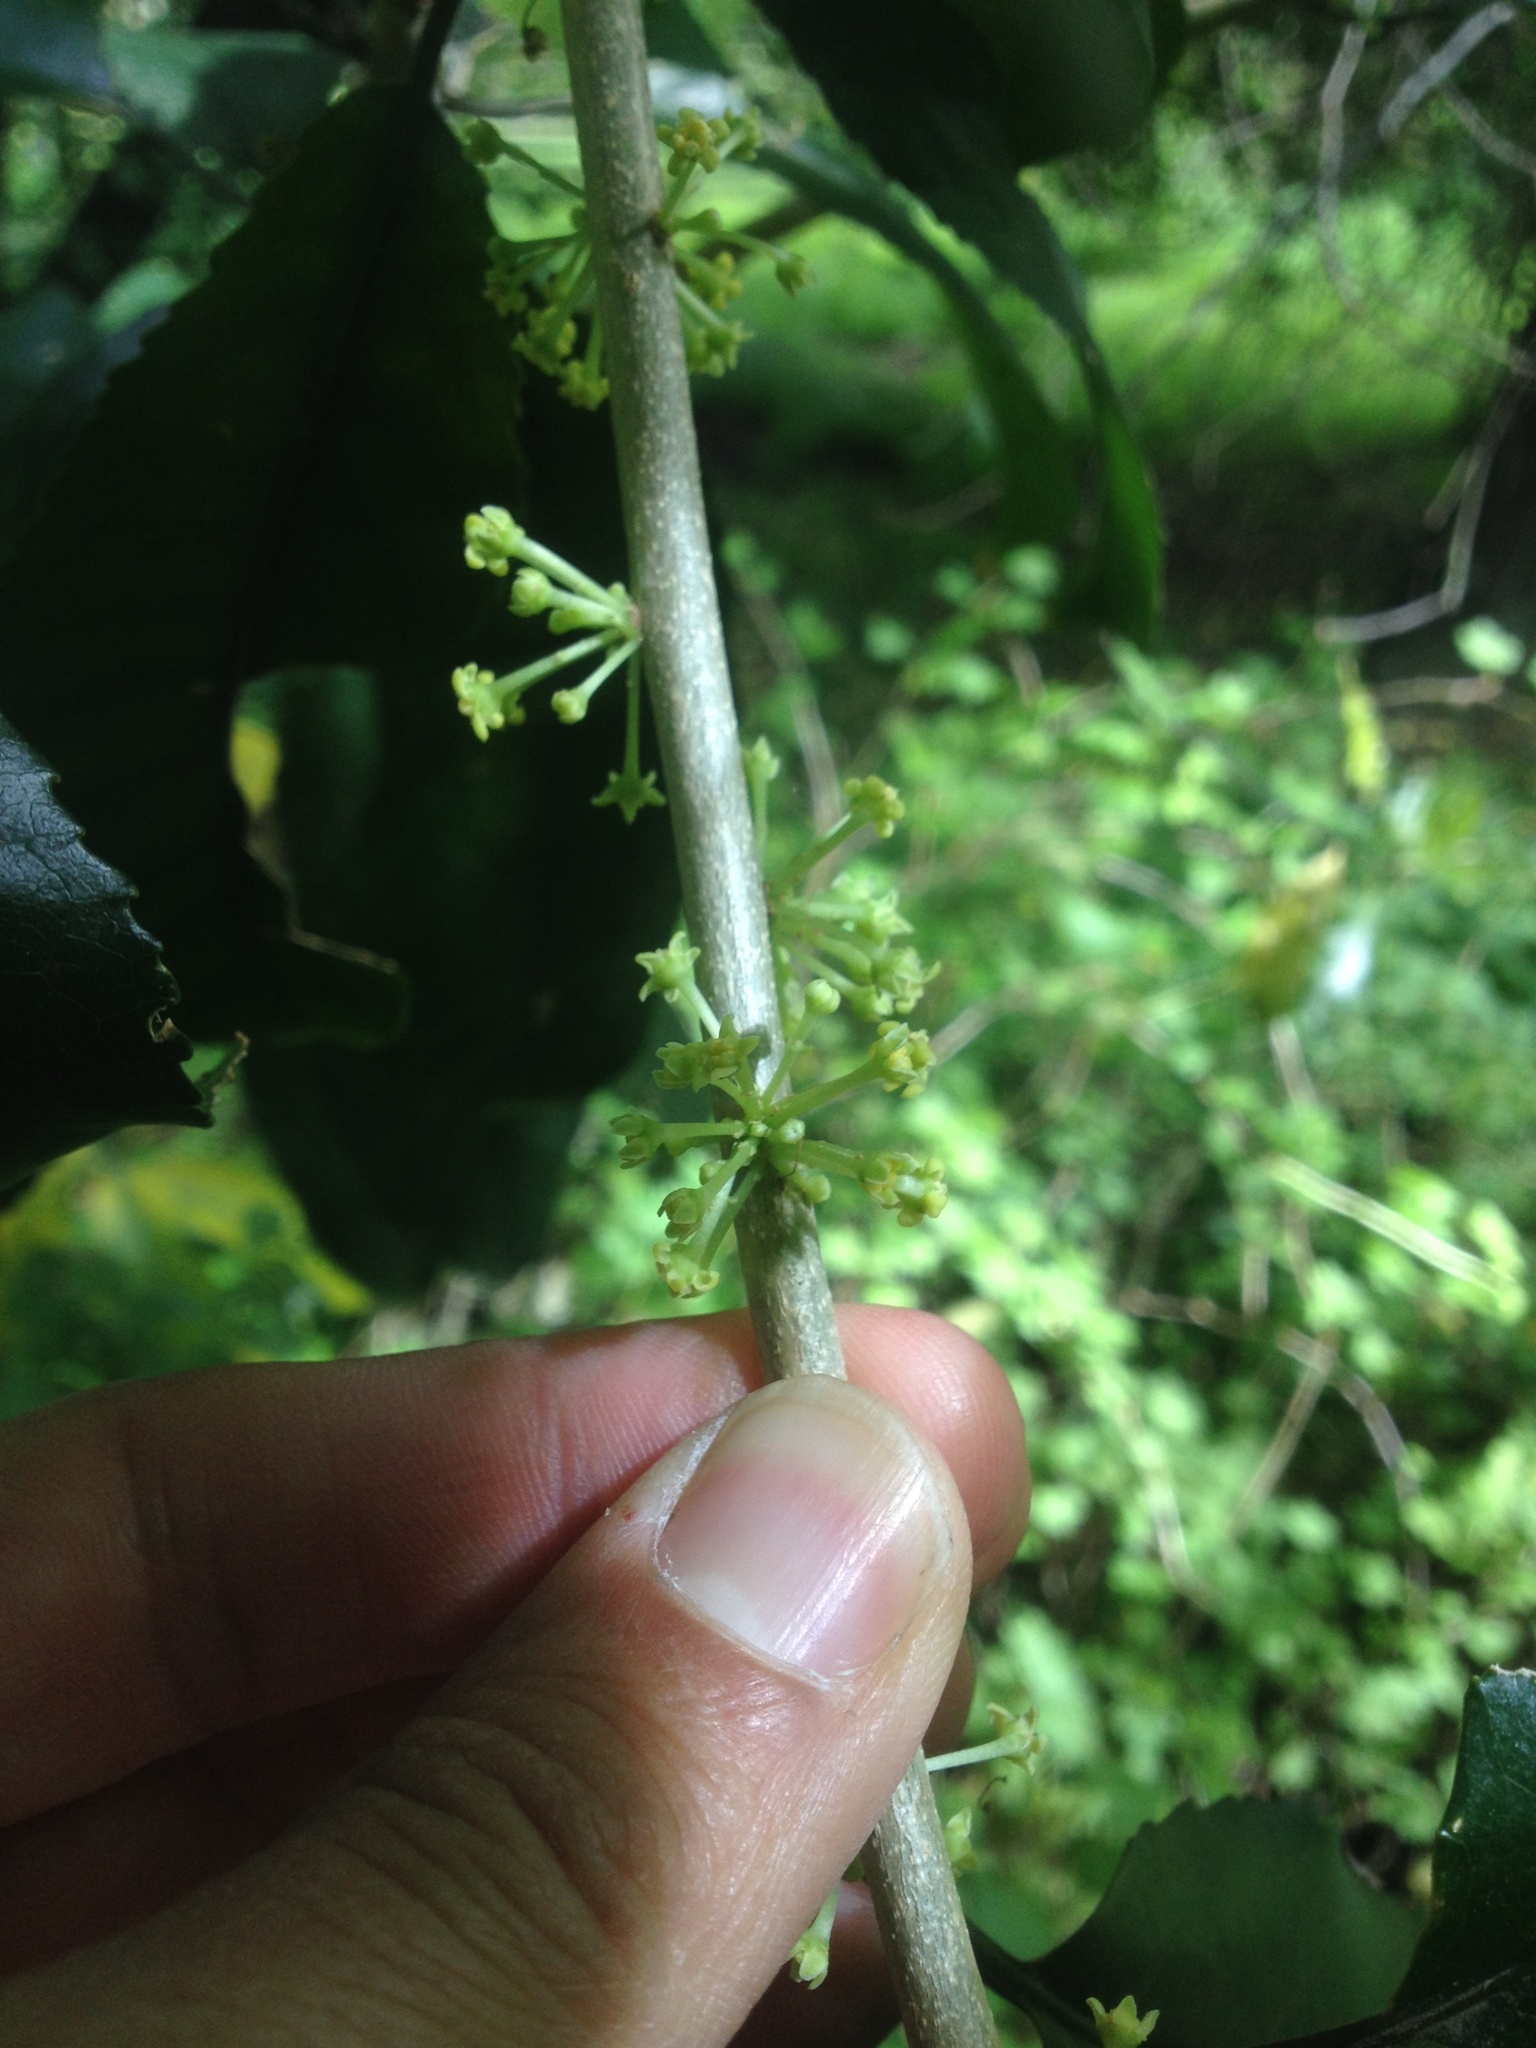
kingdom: Plantae
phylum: Tracheophyta
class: Magnoliopsida
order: Malpighiales
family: Violaceae
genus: Melicytus
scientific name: Melicytus ramiflorus
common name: Mahoe
